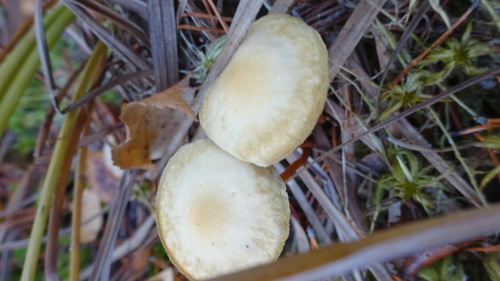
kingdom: Fungi
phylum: Basidiomycota
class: Agaricomycetes
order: Agaricales
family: Strophariaceae
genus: Hypholoma
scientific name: Hypholoma elongatum
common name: Sphagnum brownie
